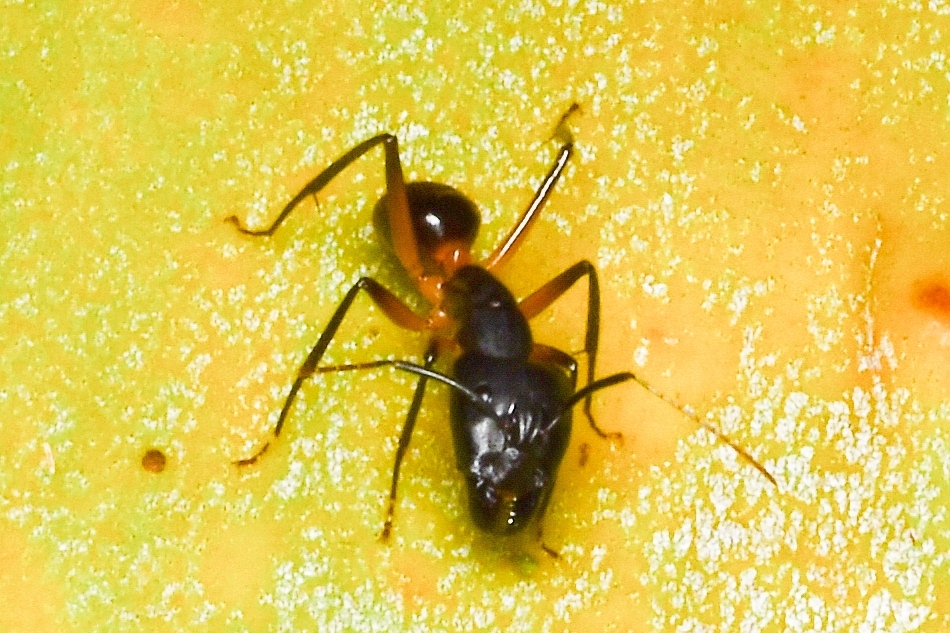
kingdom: Animalia
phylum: Arthropoda
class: Insecta
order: Hymenoptera
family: Formicidae
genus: Camponotus
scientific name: Camponotus
